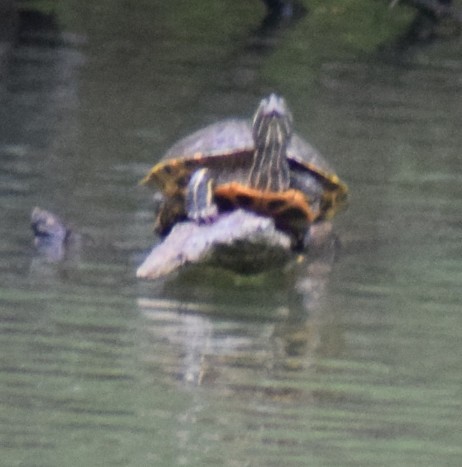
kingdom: Animalia
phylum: Chordata
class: Testudines
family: Emydidae
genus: Trachemys
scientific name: Trachemys scripta
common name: Slider
